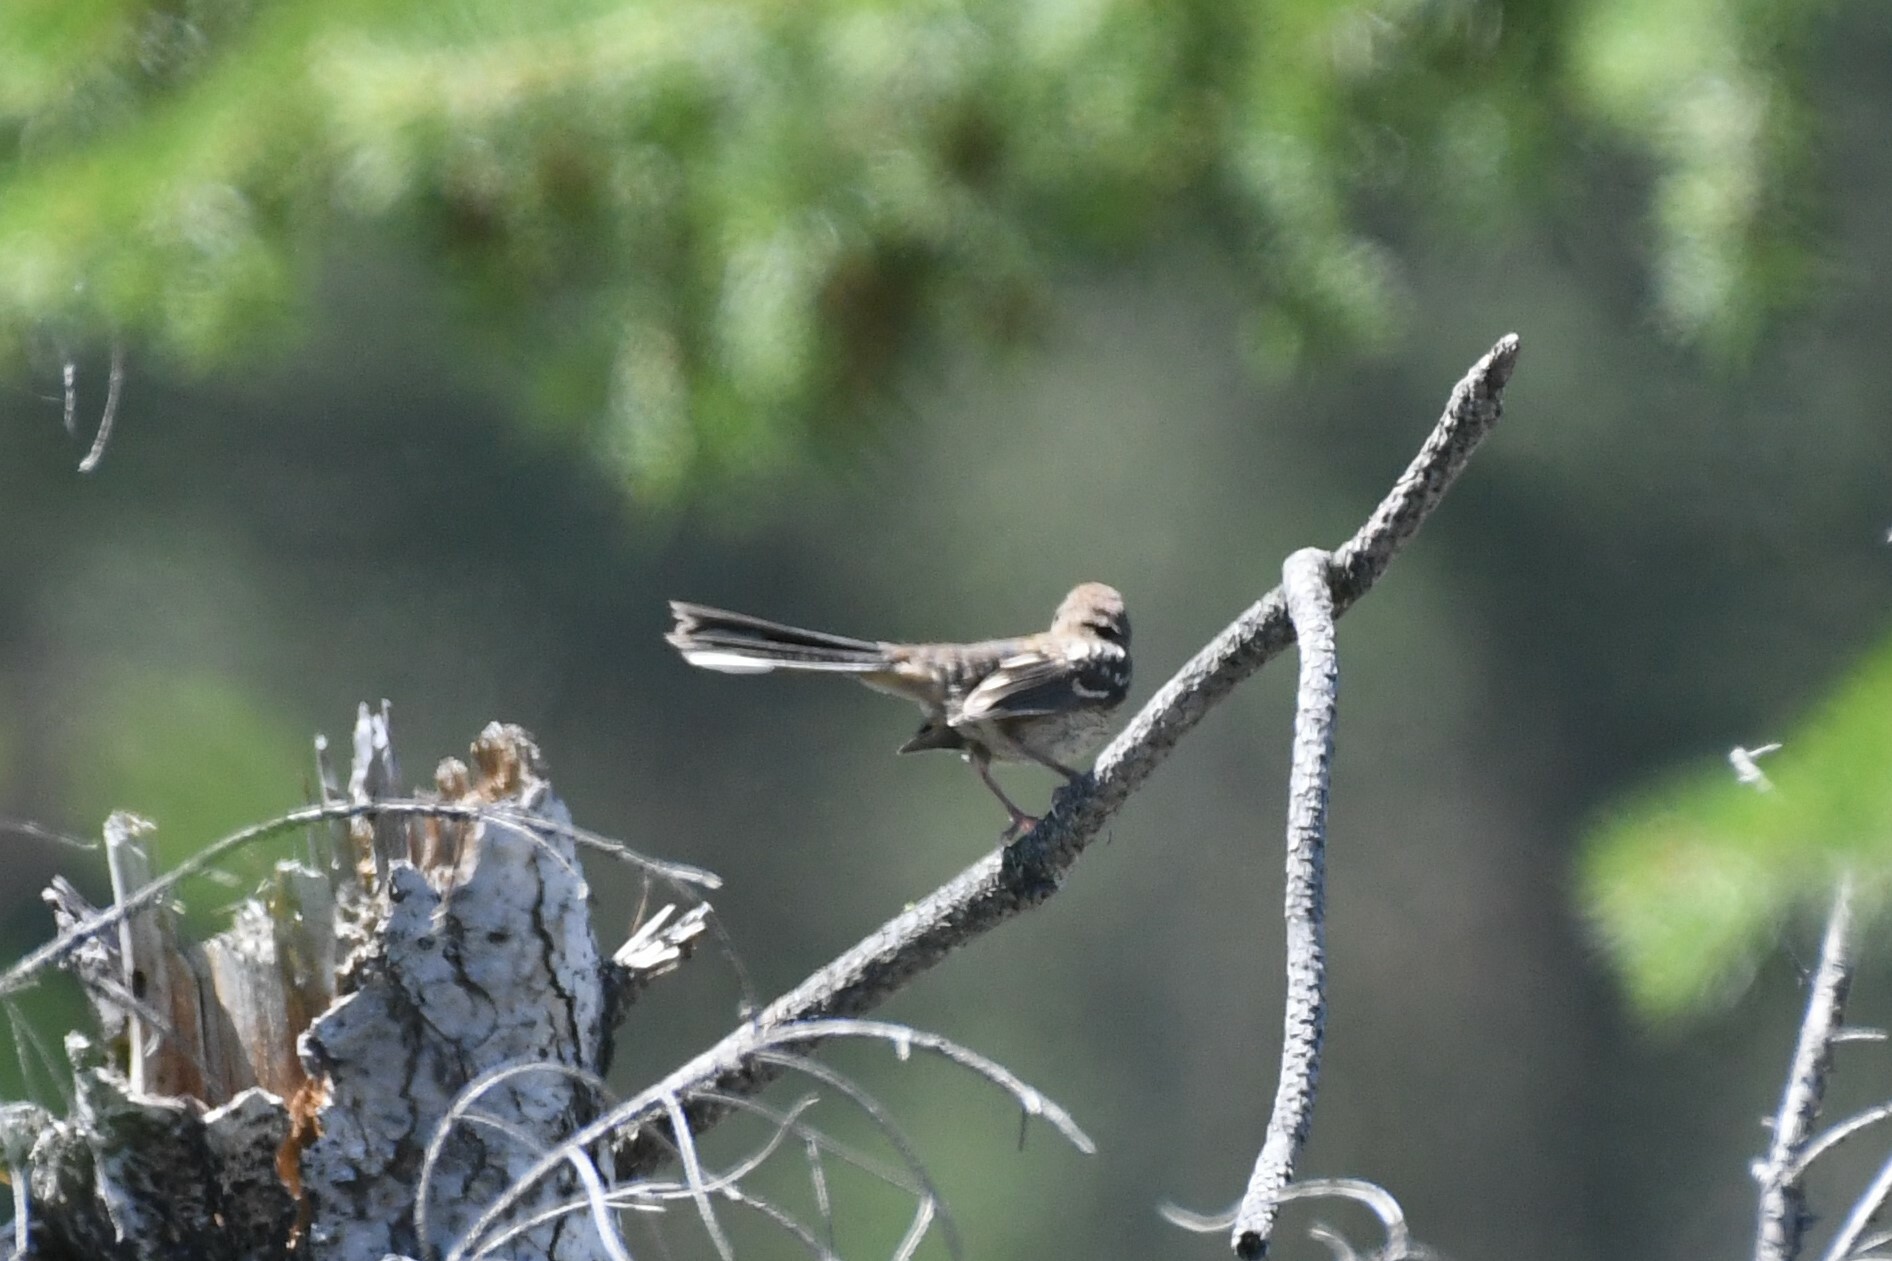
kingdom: Animalia
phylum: Chordata
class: Aves
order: Passeriformes
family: Passerellidae
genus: Pipilo
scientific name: Pipilo maculatus
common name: Spotted towhee
